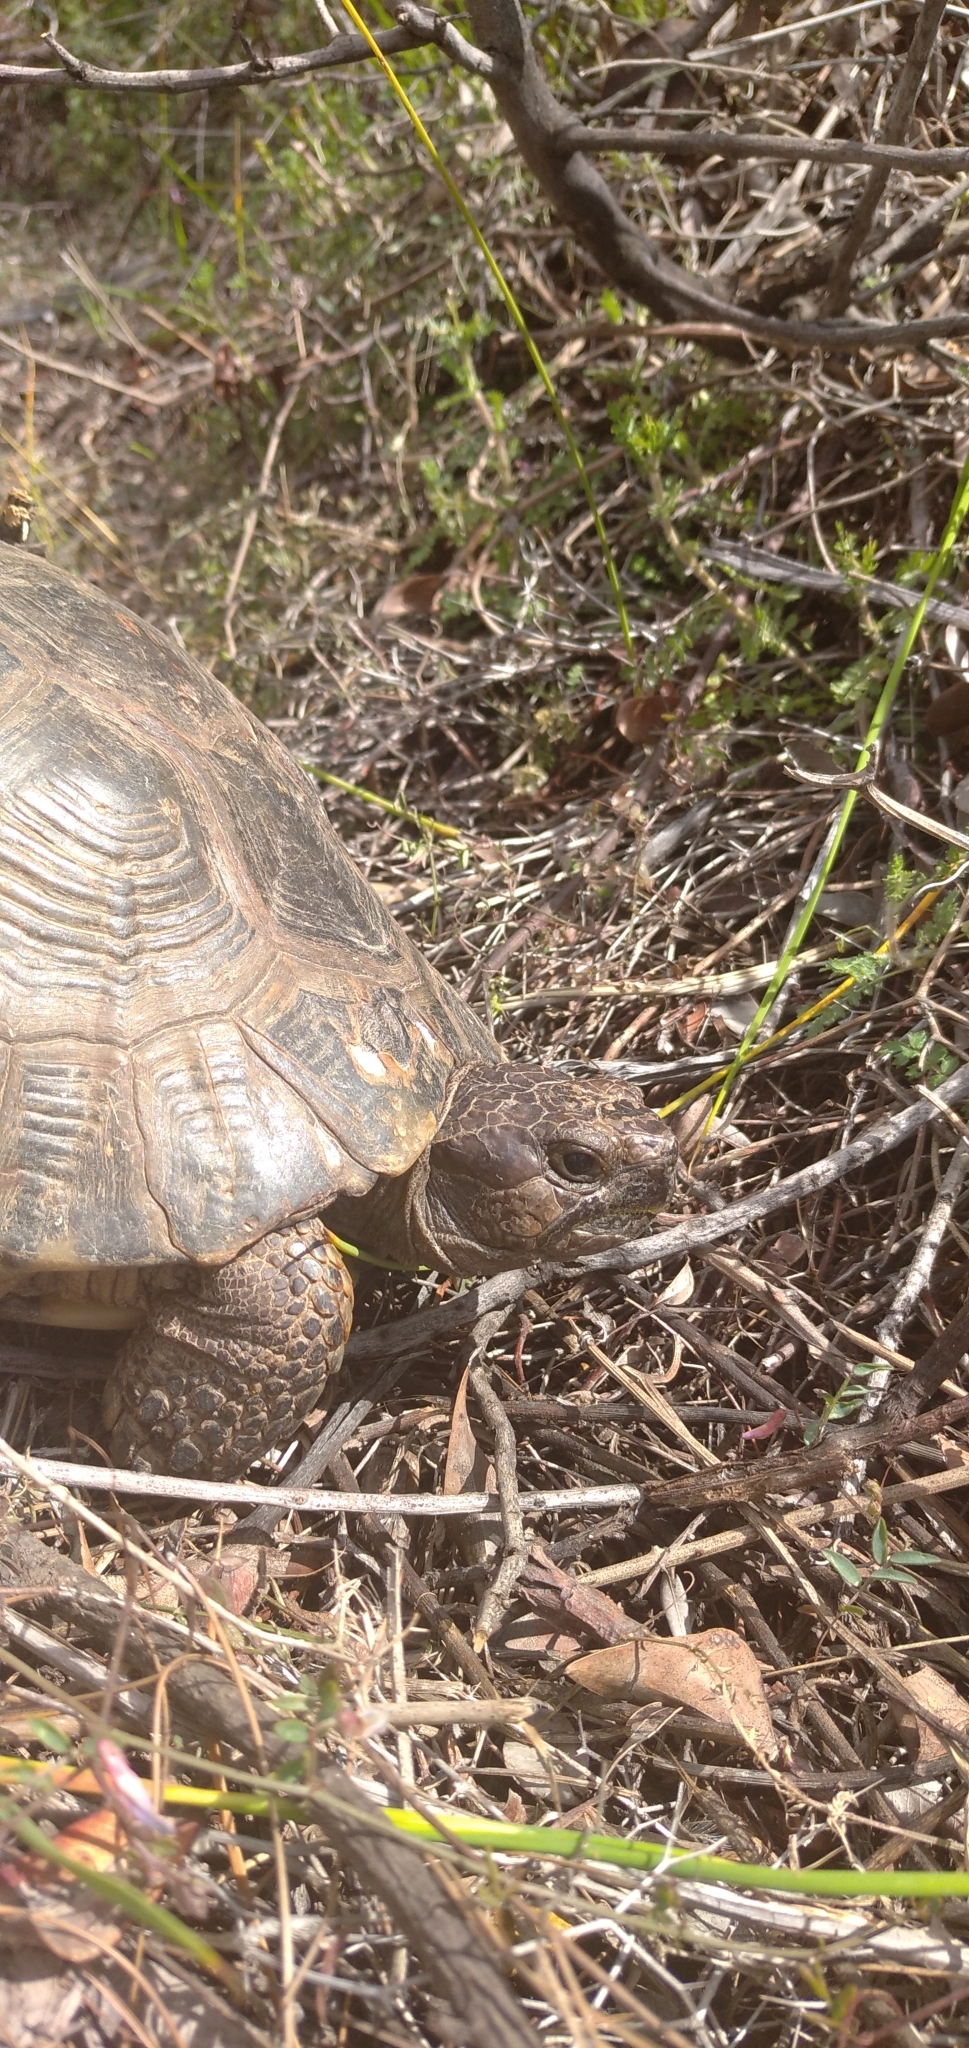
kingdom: Animalia
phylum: Chordata
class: Testudines
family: Testudinidae
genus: Testudo
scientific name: Testudo marginata
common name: Marginated tortoise
